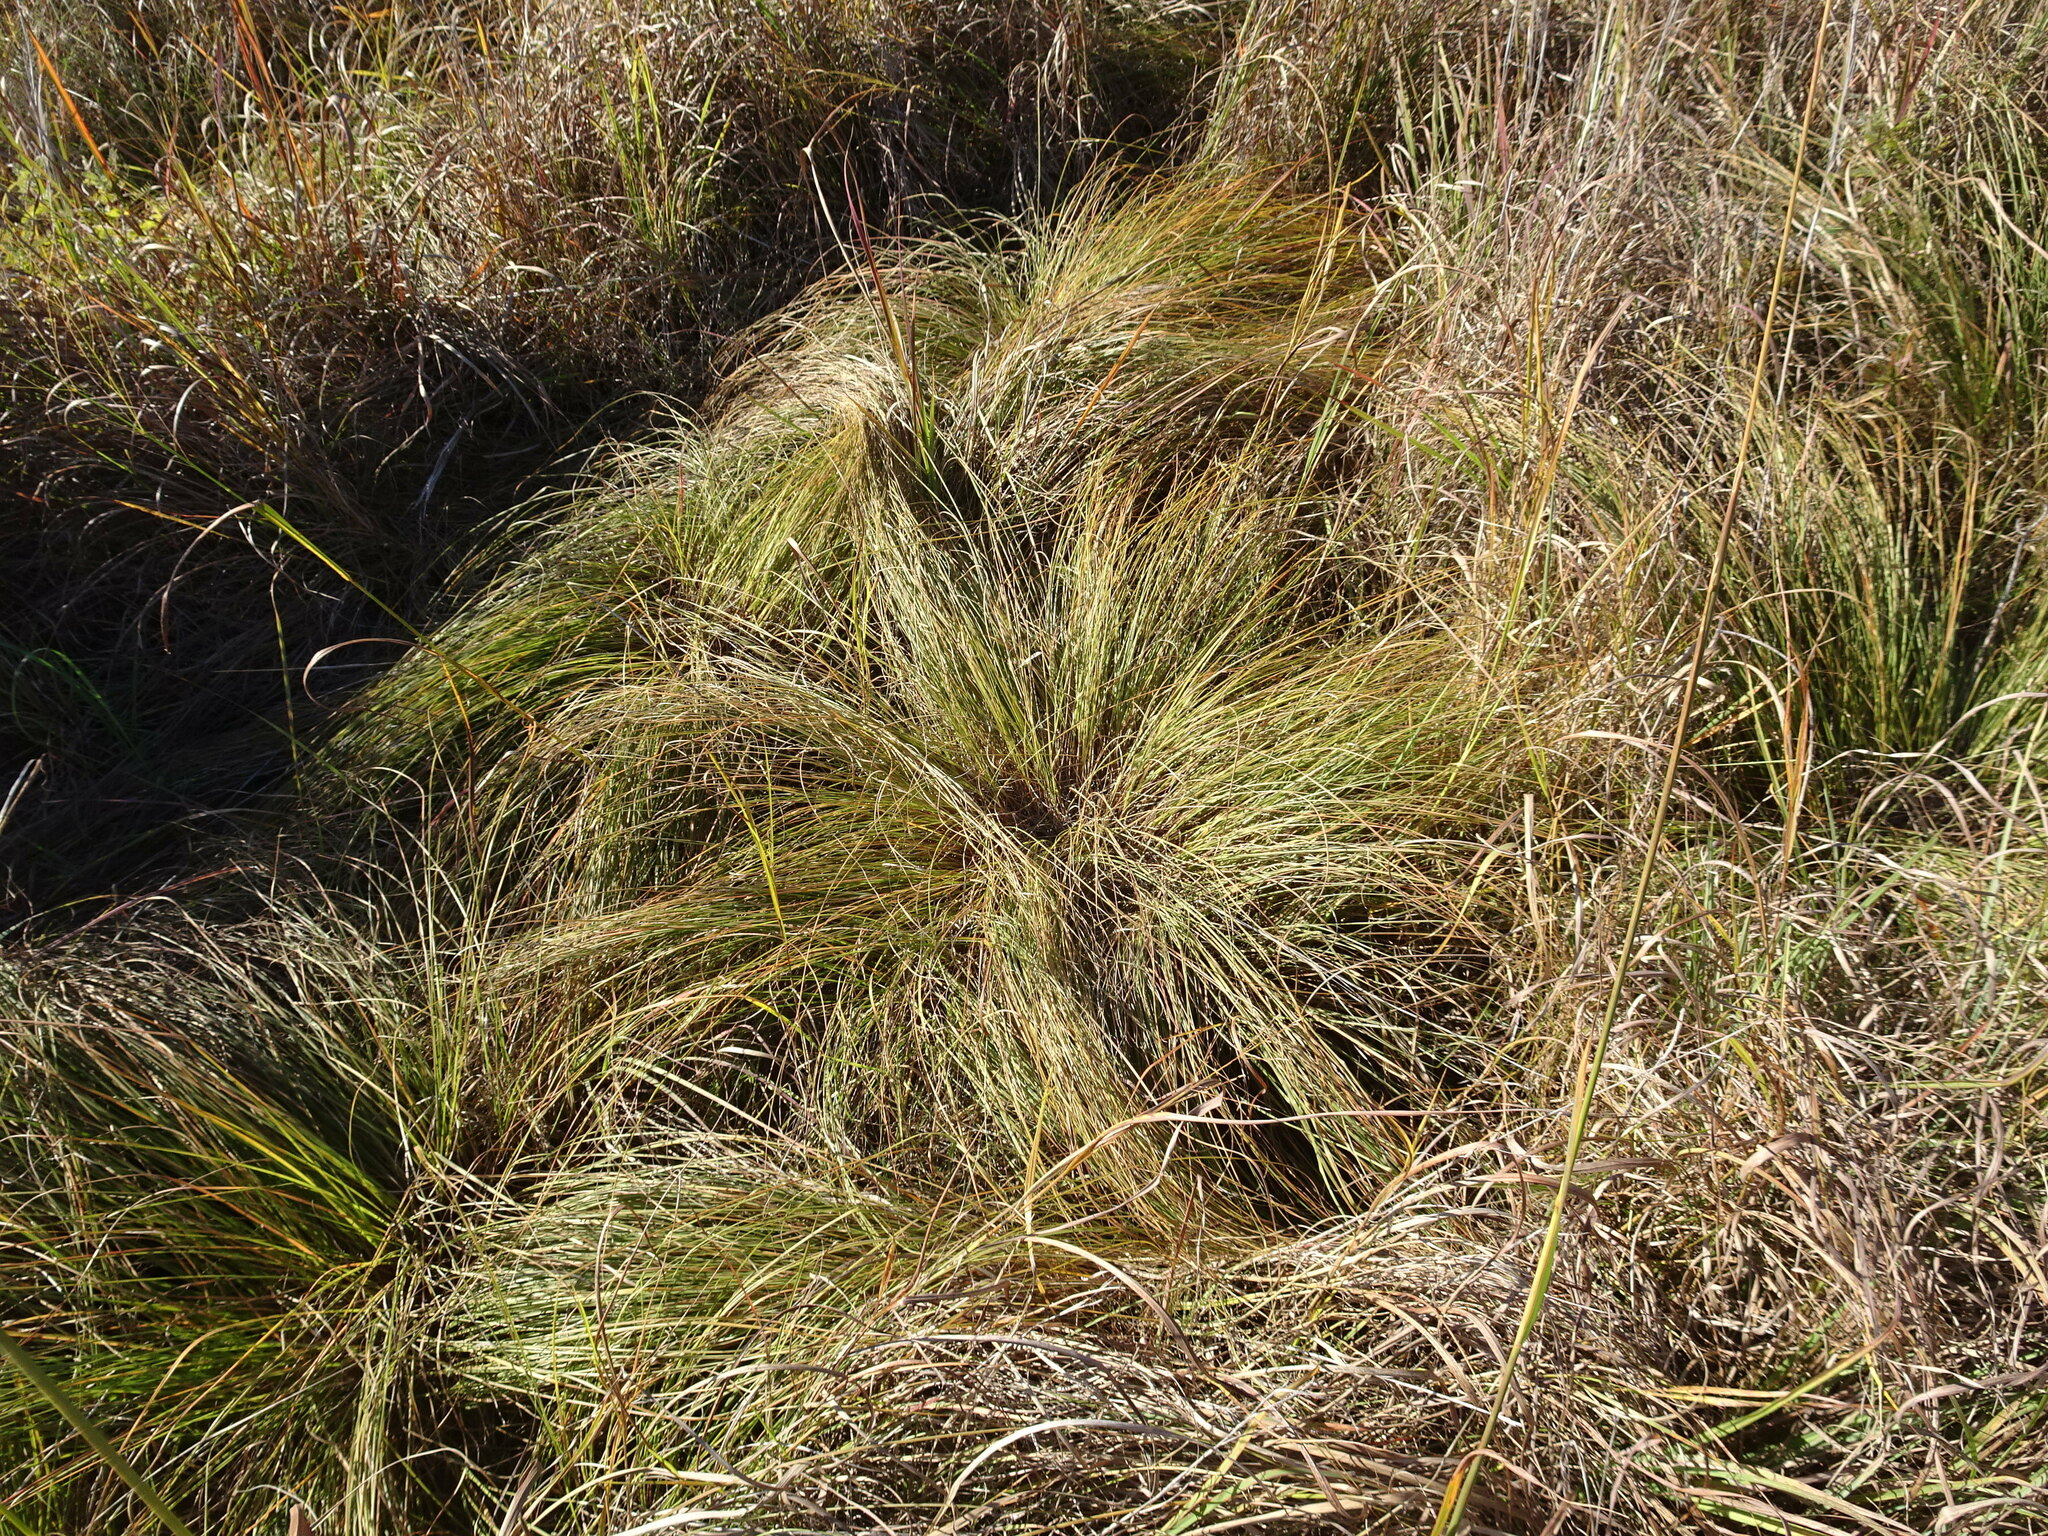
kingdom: Plantae
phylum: Tracheophyta
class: Liliopsida
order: Poales
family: Poaceae
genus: Sporobolus
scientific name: Sporobolus heterolepis
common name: Prairie dropseed
